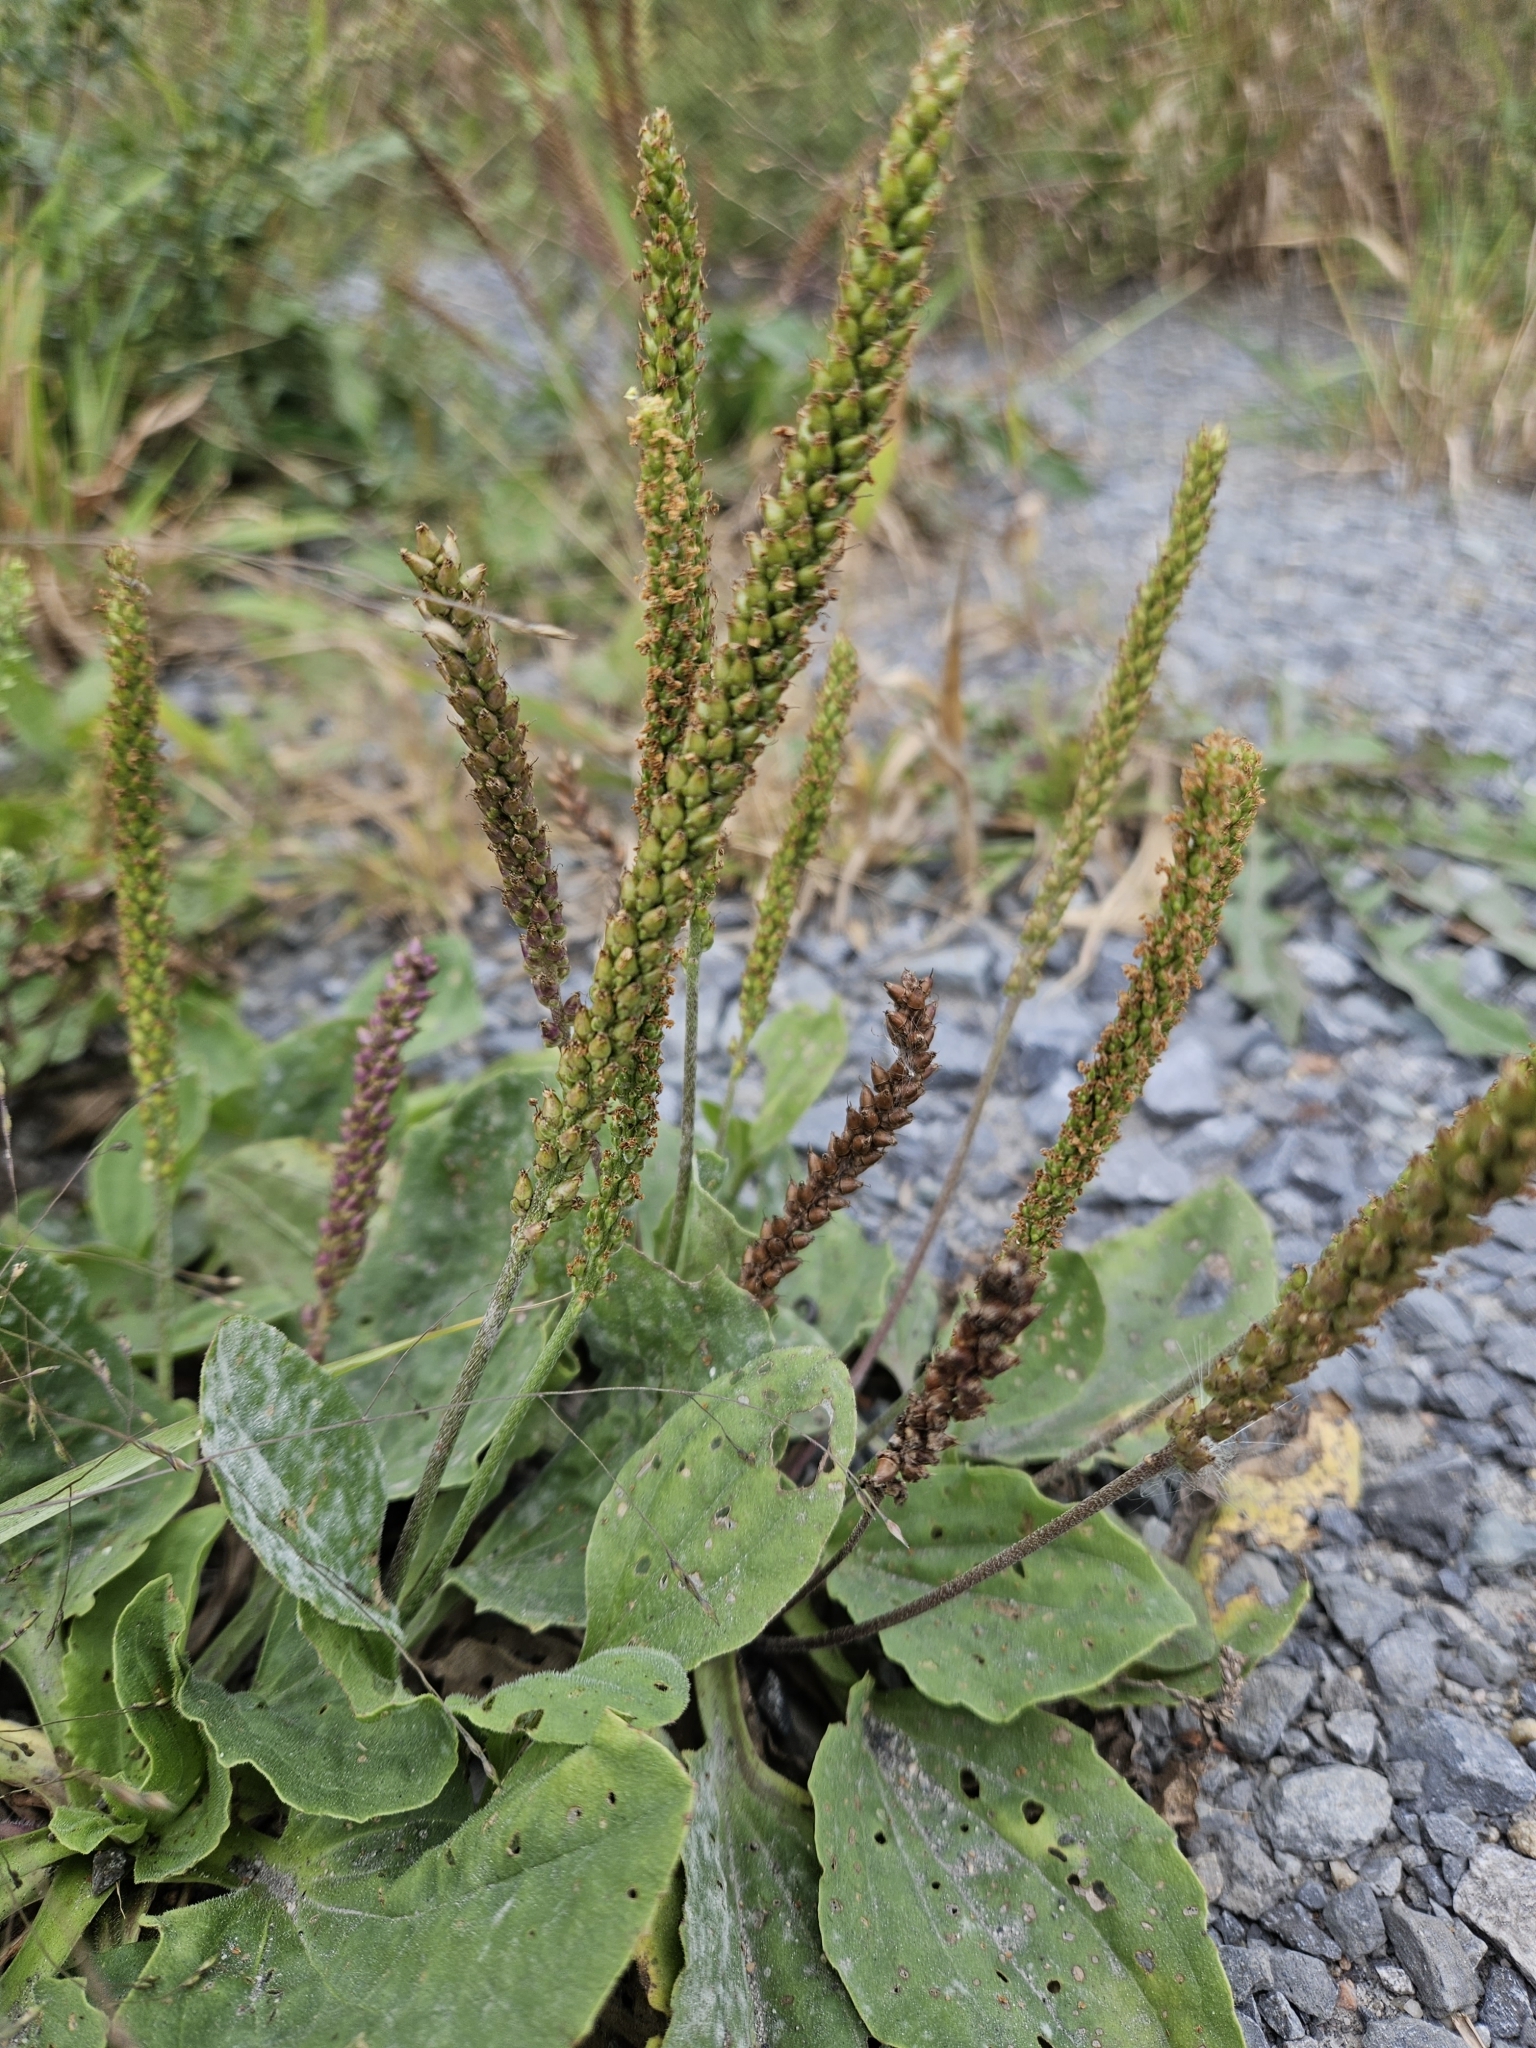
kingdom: Plantae
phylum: Tracheophyta
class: Magnoliopsida
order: Lamiales
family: Plantaginaceae
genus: Plantago
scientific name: Plantago major
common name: Common plantain
